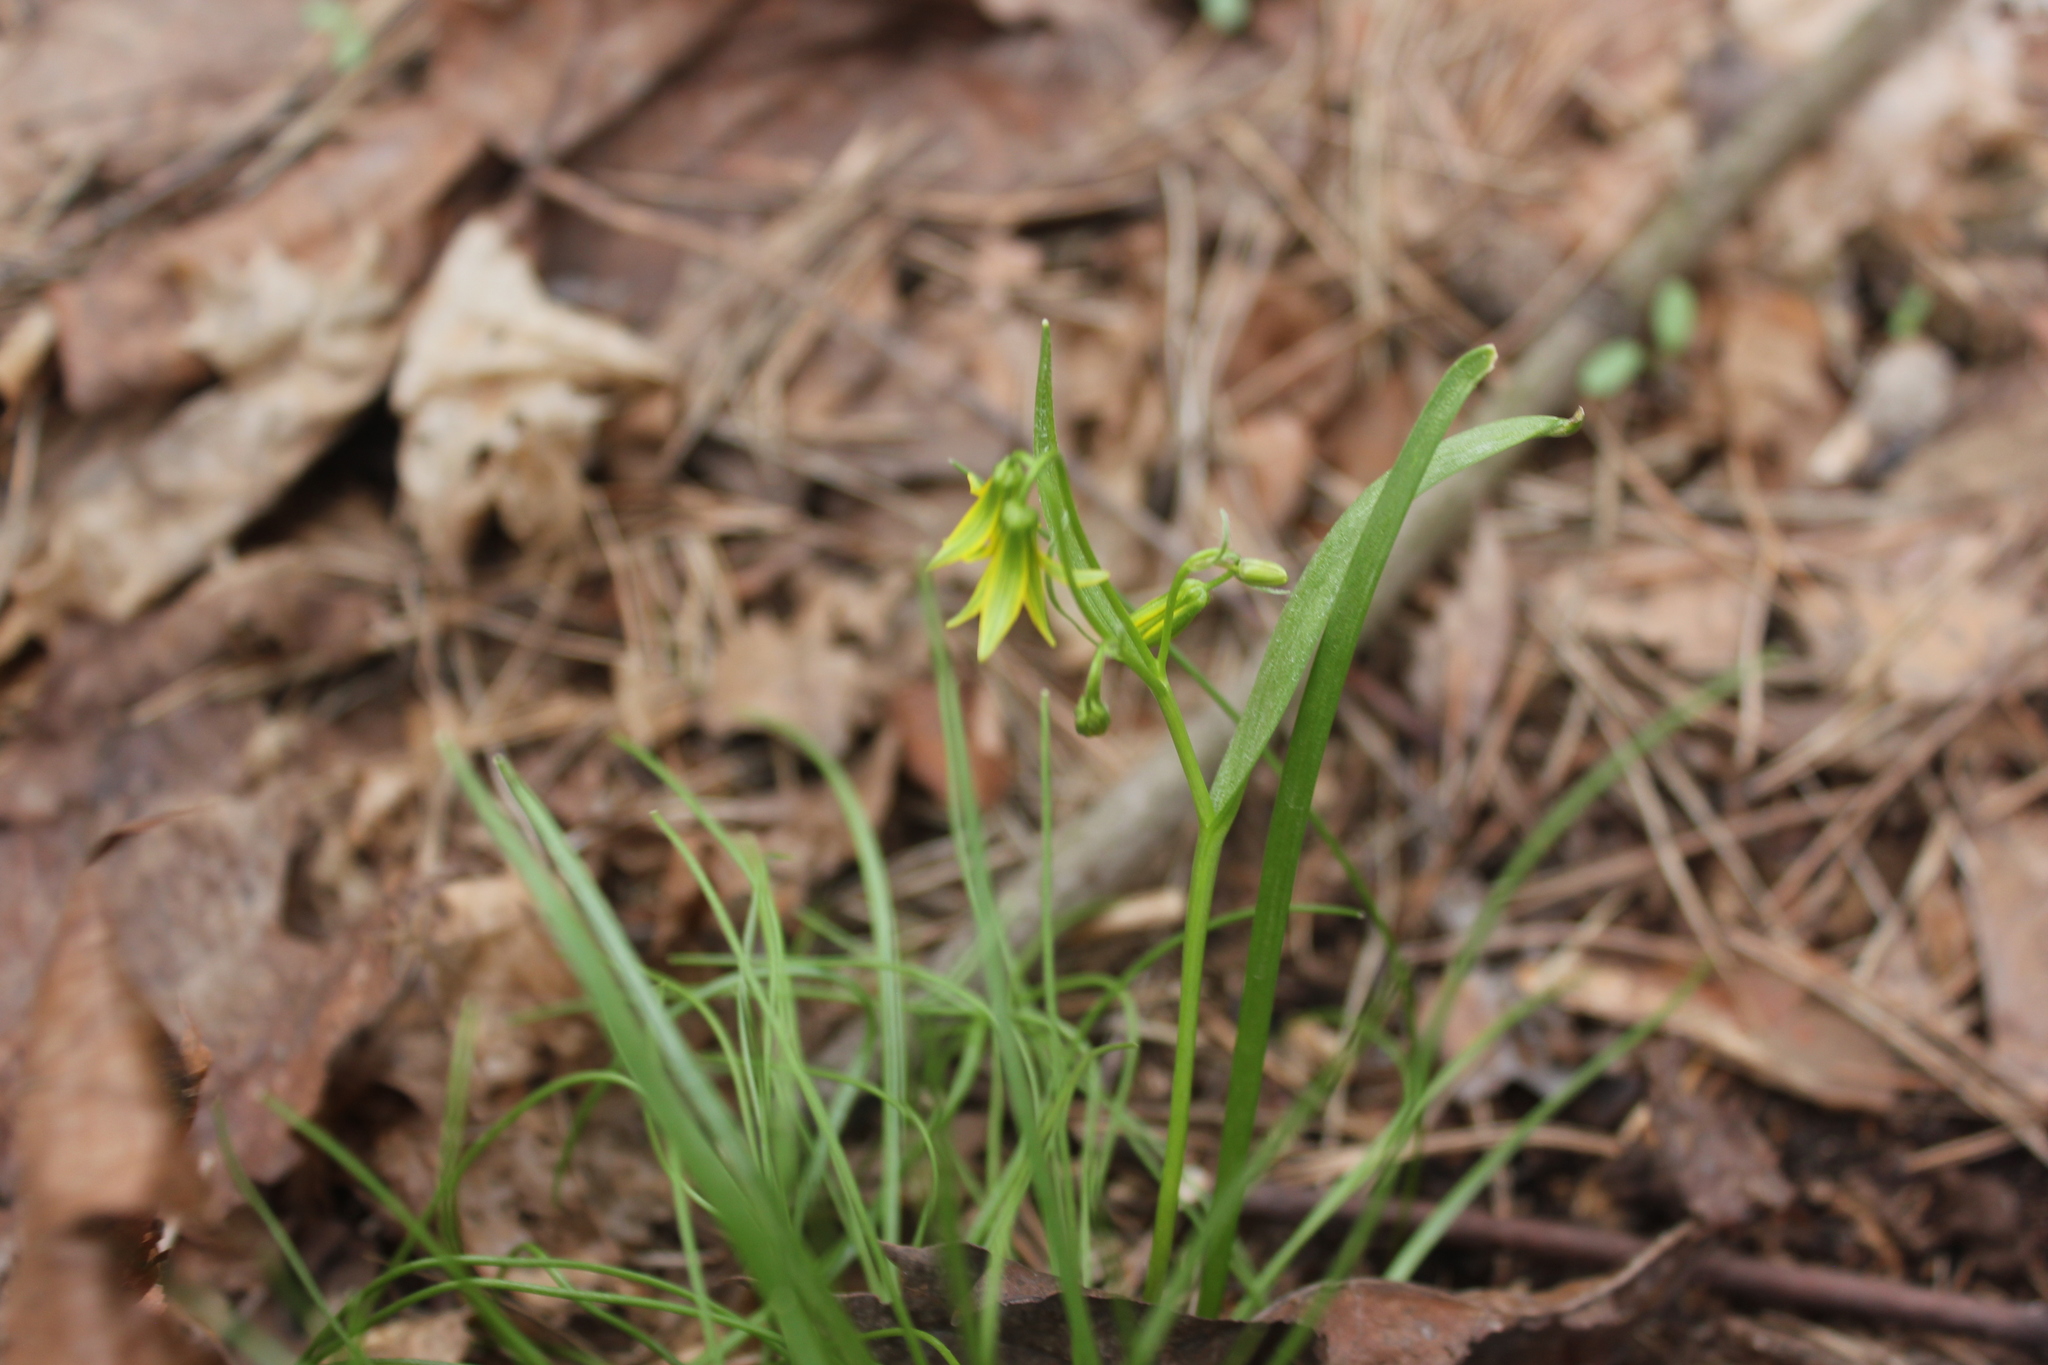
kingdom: Plantae
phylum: Tracheophyta
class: Liliopsida
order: Liliales
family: Liliaceae
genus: Gagea
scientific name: Gagea minima
